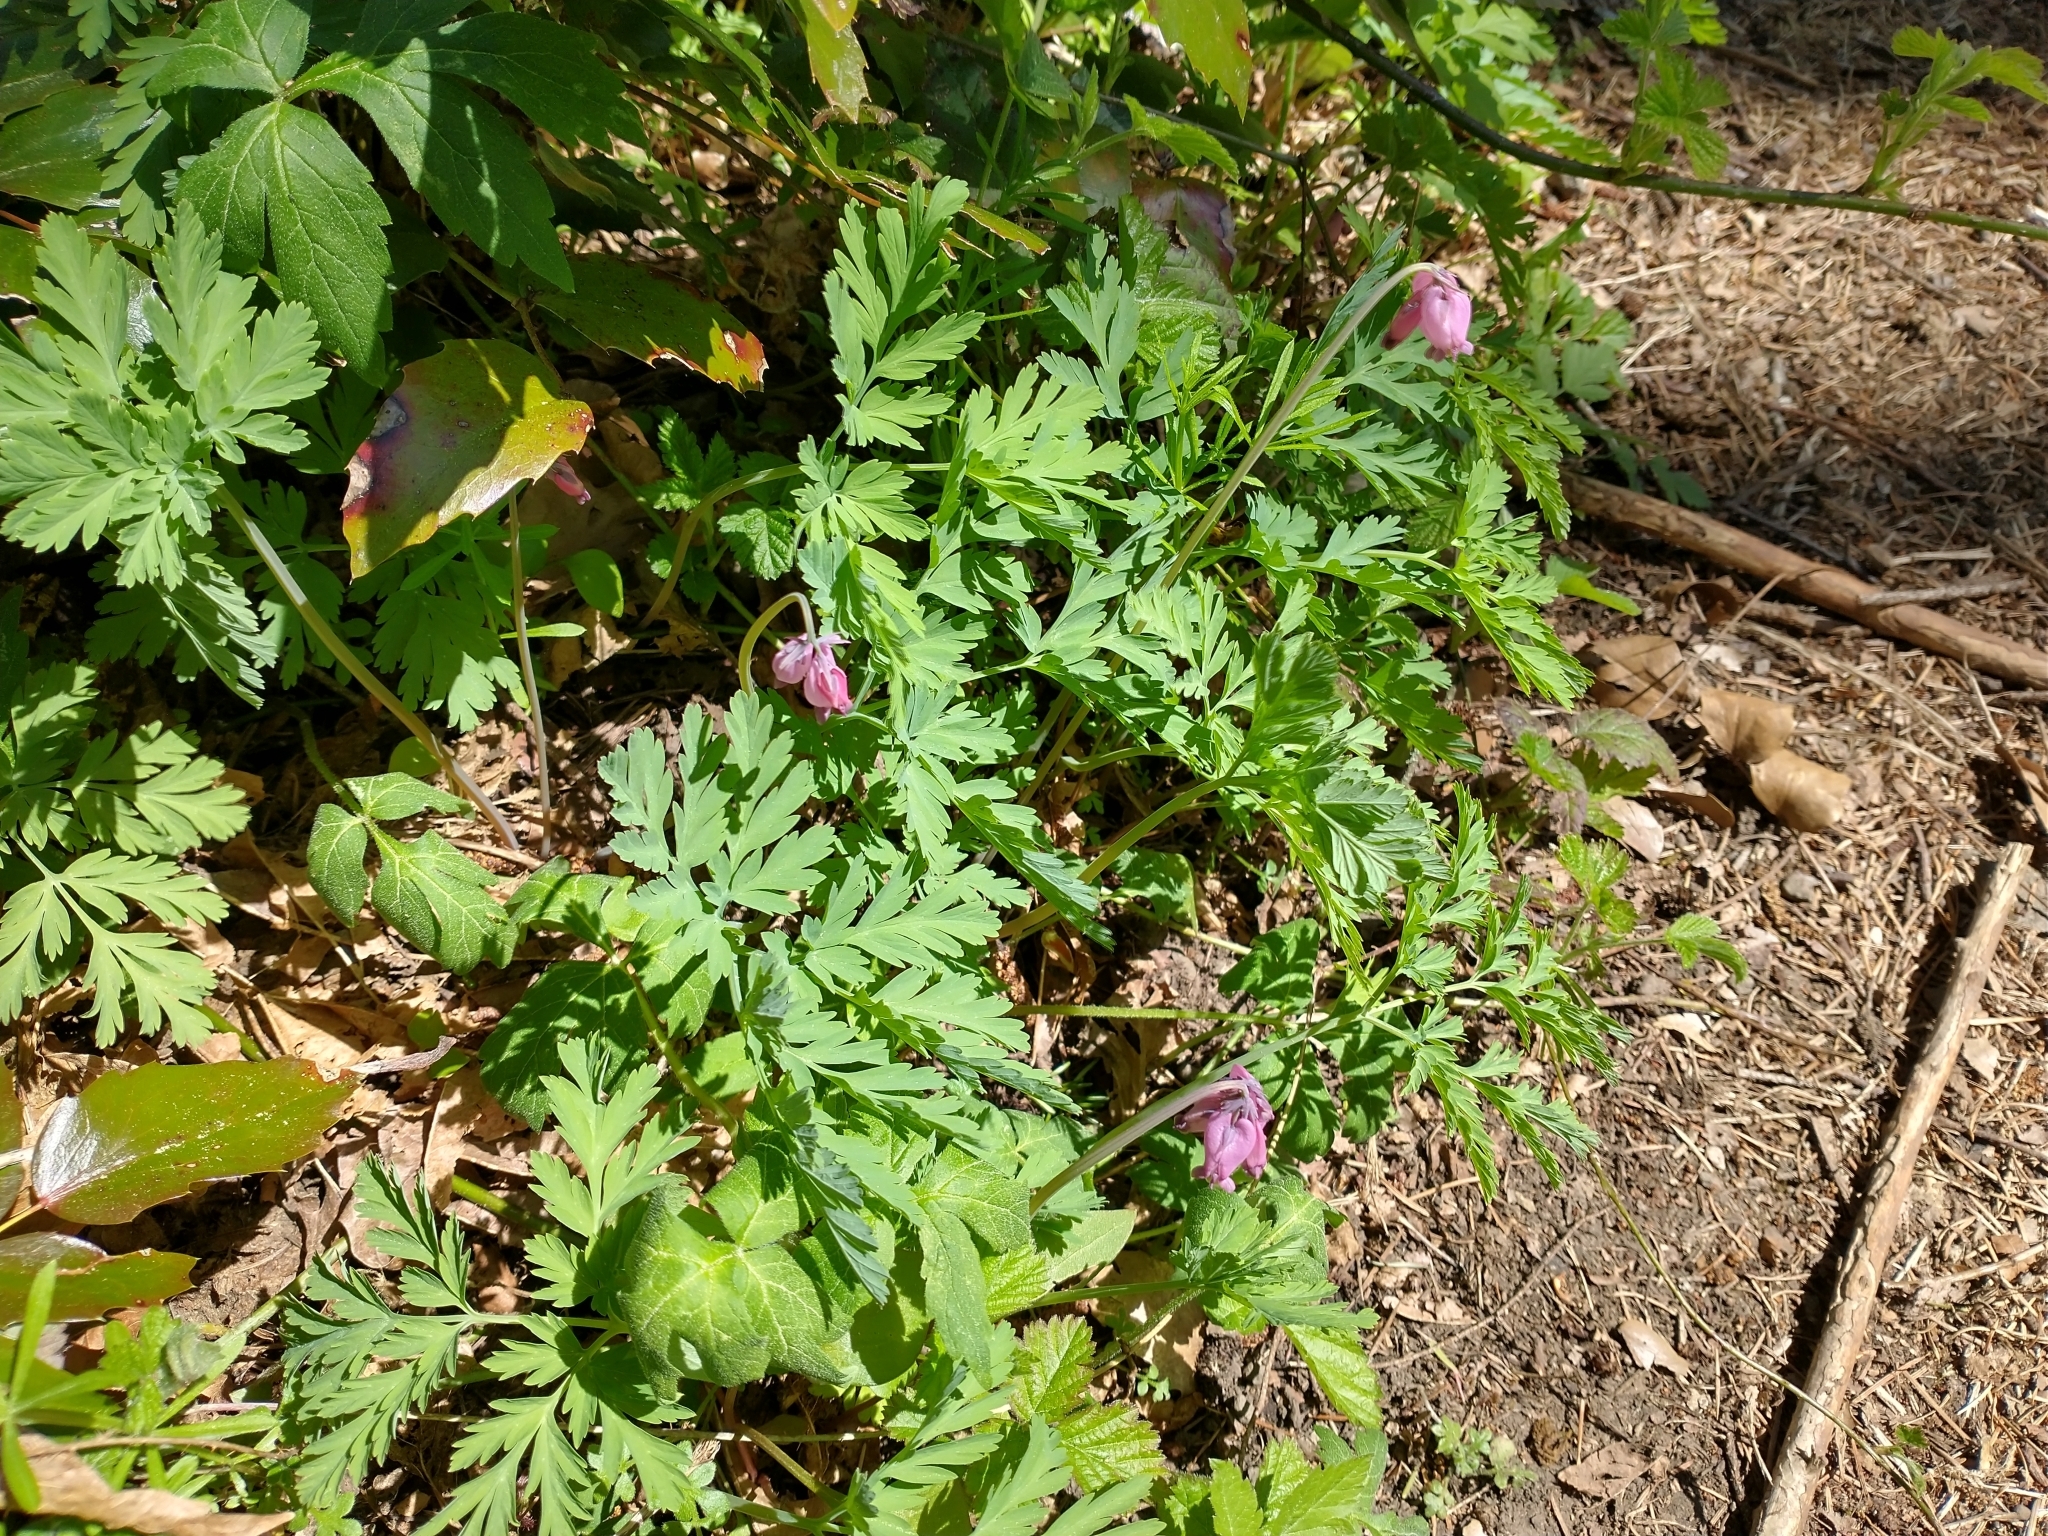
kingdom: Plantae
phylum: Tracheophyta
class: Magnoliopsida
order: Ranunculales
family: Papaveraceae
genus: Dicentra
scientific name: Dicentra formosa
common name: Bleeding-heart
